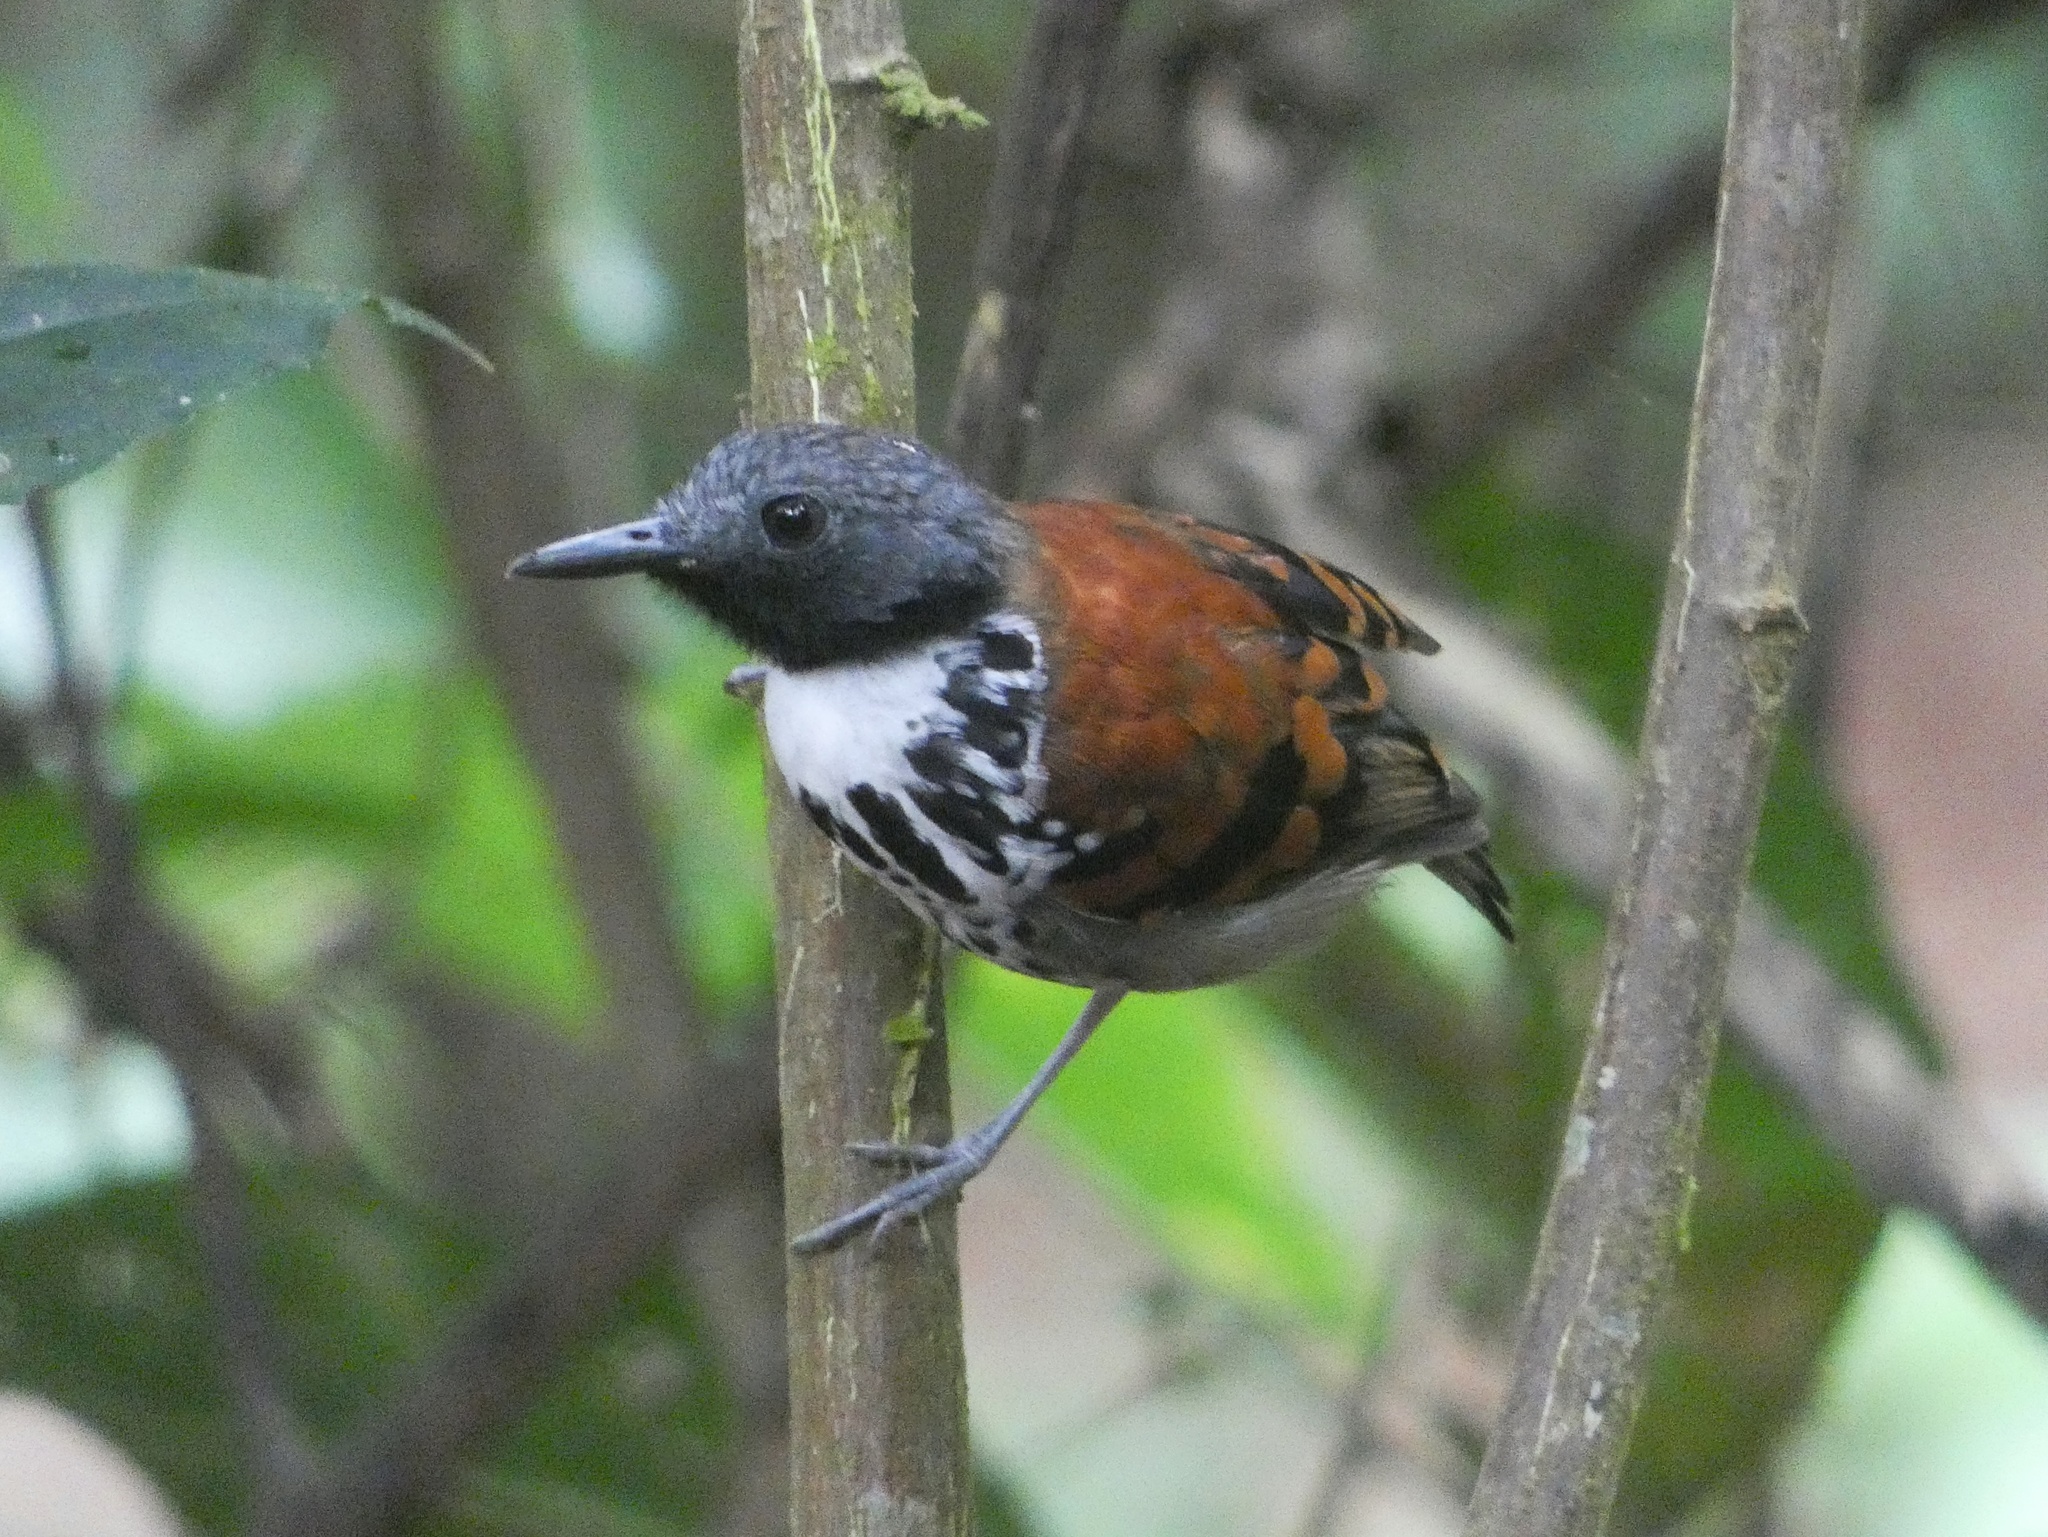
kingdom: Animalia
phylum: Chordata
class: Aves
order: Passeriformes
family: Thamnophilidae
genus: Hylophylax
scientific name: Hylophylax naevioides
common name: Spotted antbird
